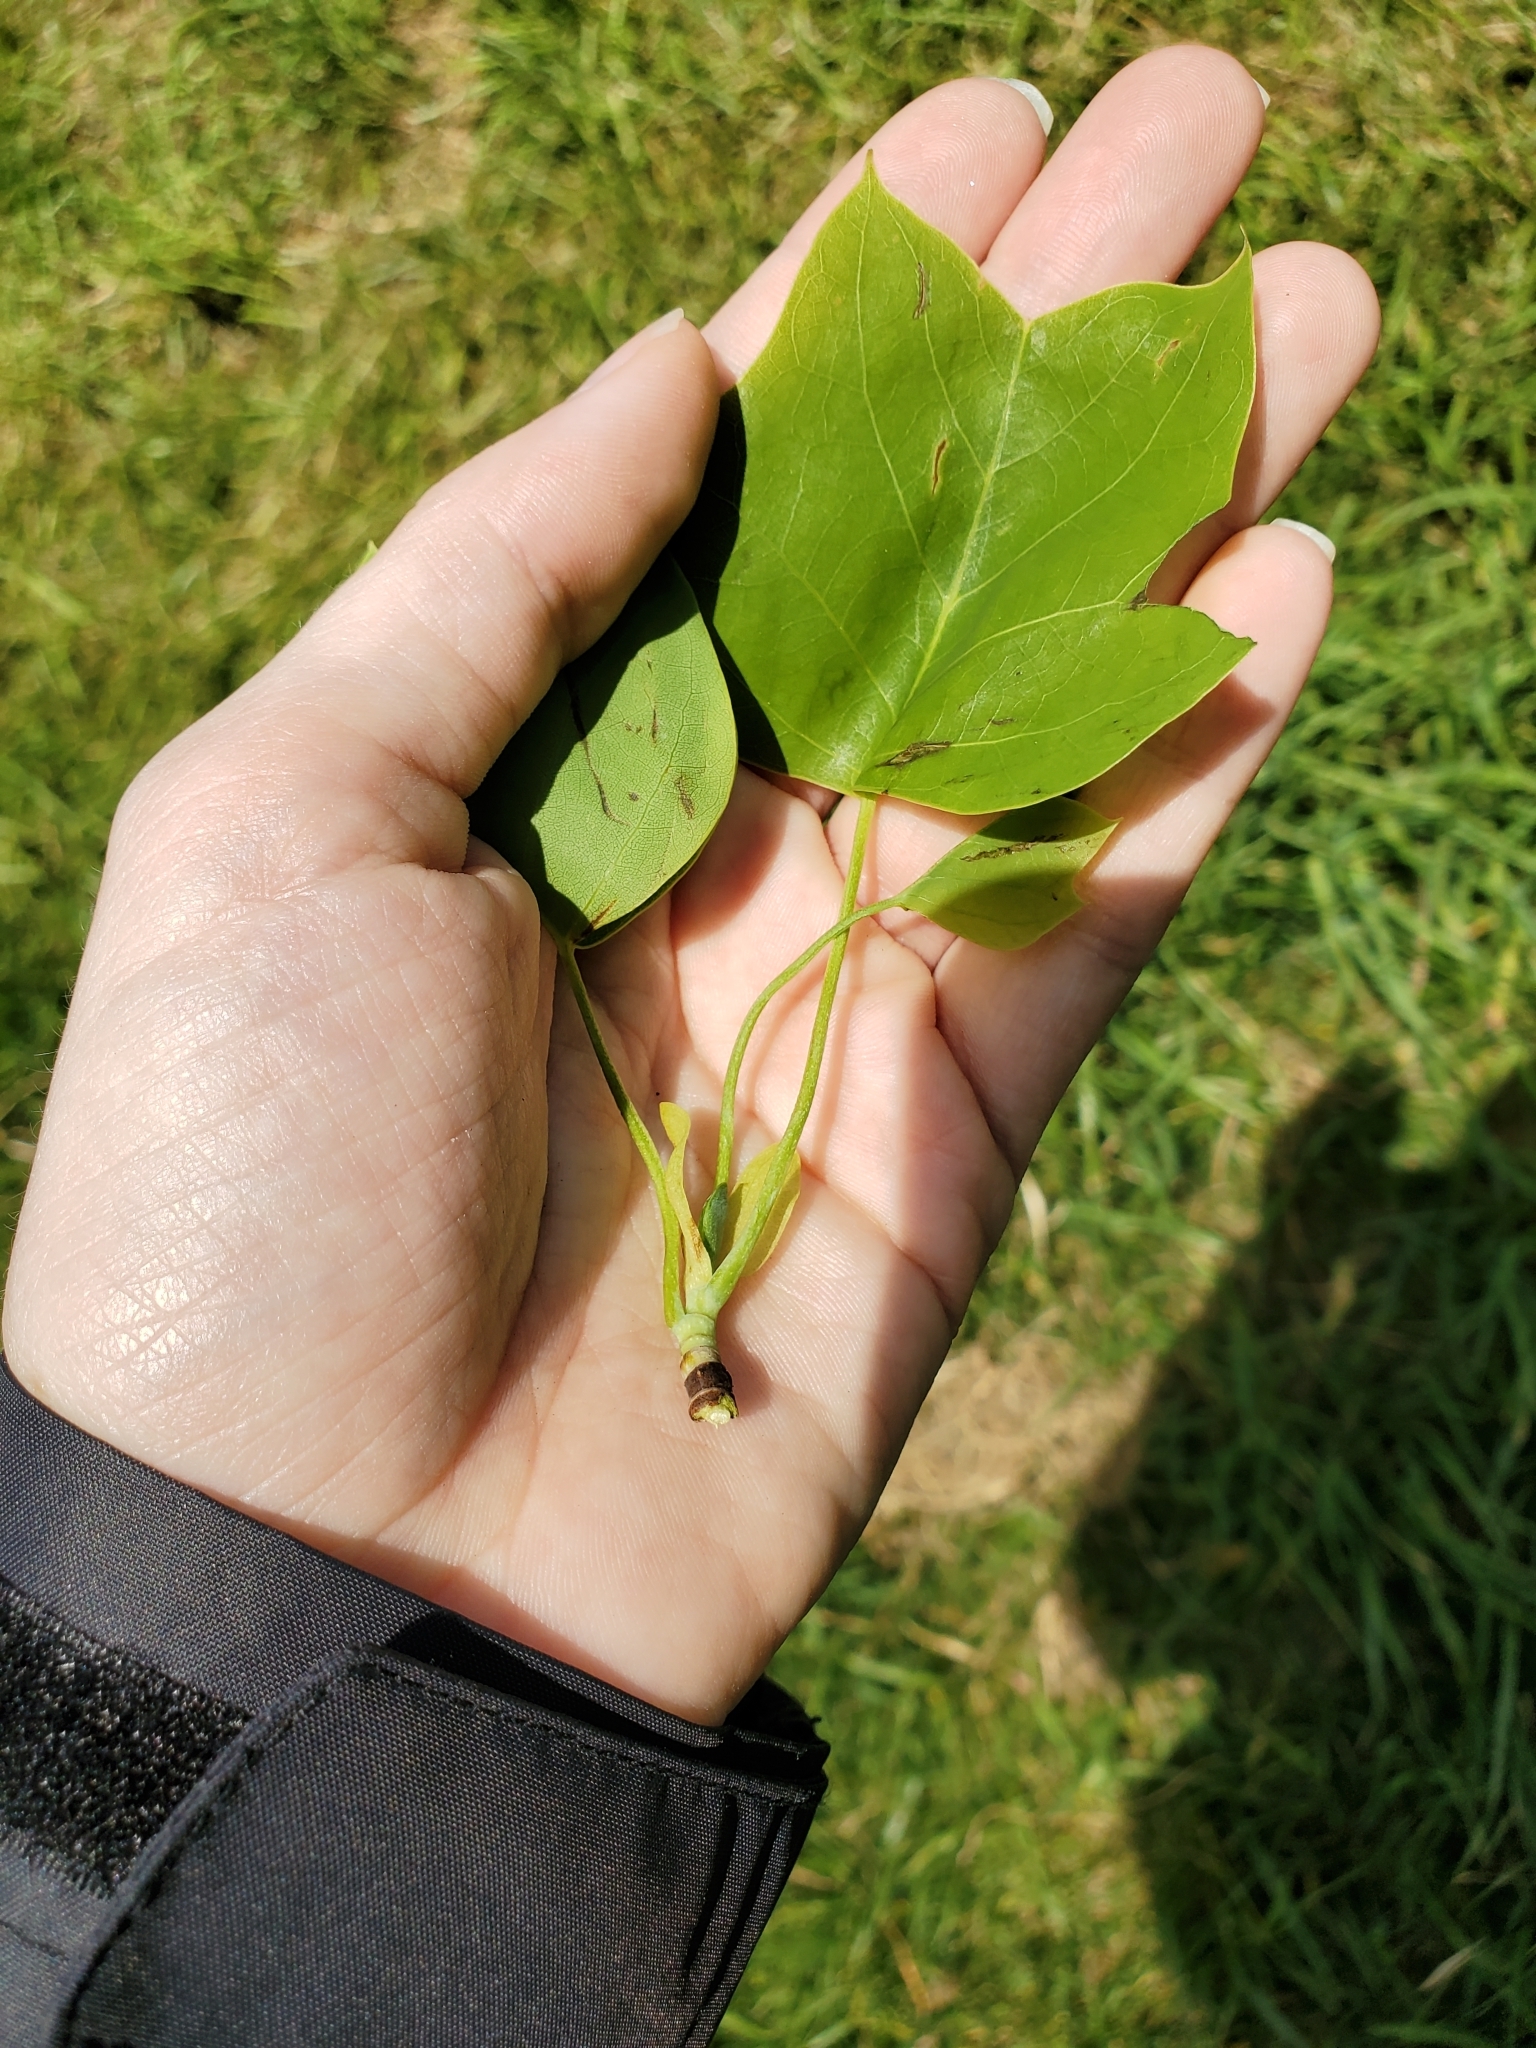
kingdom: Plantae
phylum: Tracheophyta
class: Magnoliopsida
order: Magnoliales
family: Magnoliaceae
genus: Liriodendron
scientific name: Liriodendron tulipifera
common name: Tulip tree
